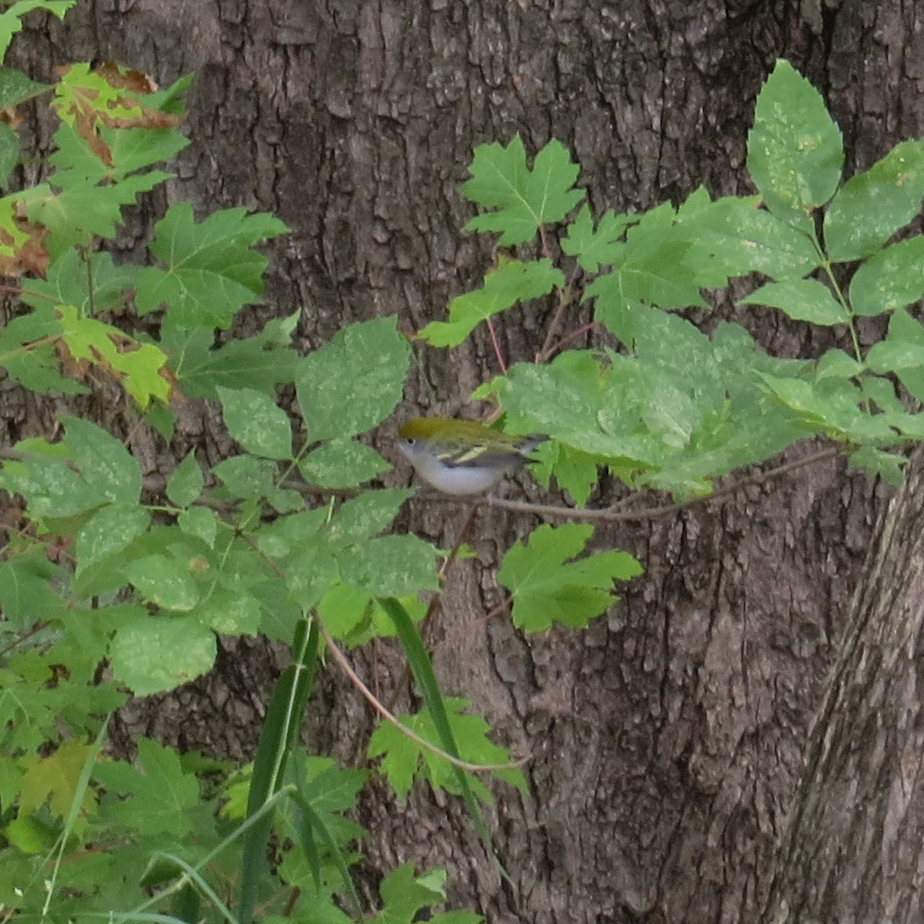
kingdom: Animalia
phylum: Chordata
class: Aves
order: Passeriformes
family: Parulidae
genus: Setophaga
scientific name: Setophaga pensylvanica
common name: Chestnut-sided warbler
